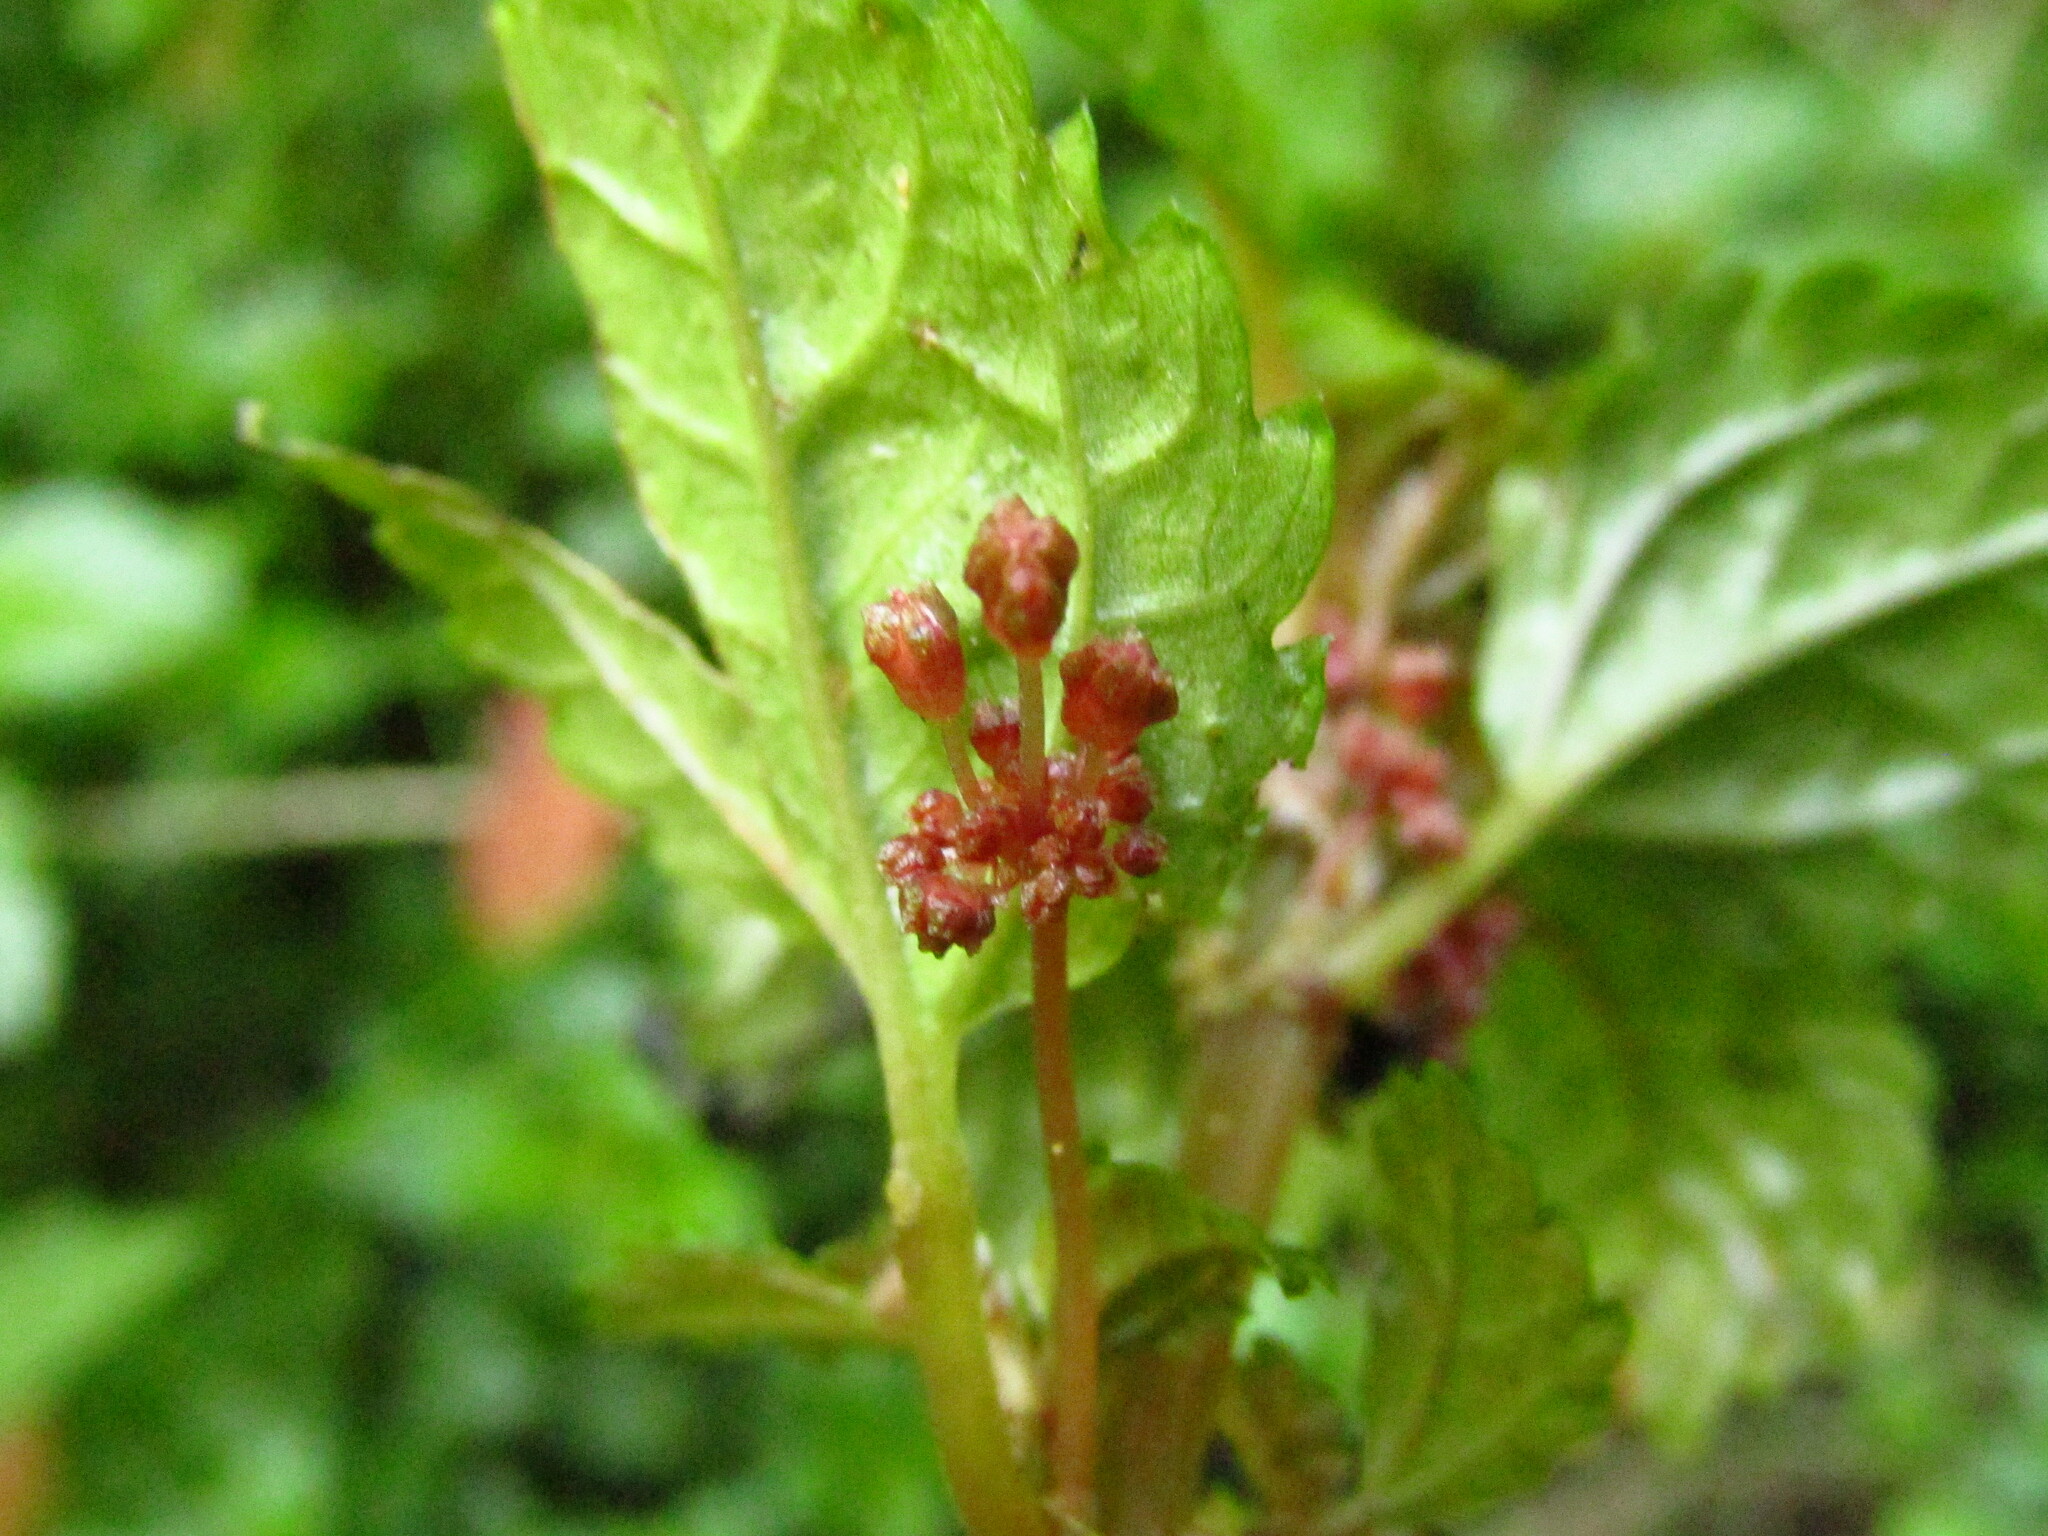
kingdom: Plantae
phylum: Tracheophyta
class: Magnoliopsida
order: Rosales
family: Urticaceae
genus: Pilea
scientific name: Pilea elliptica
